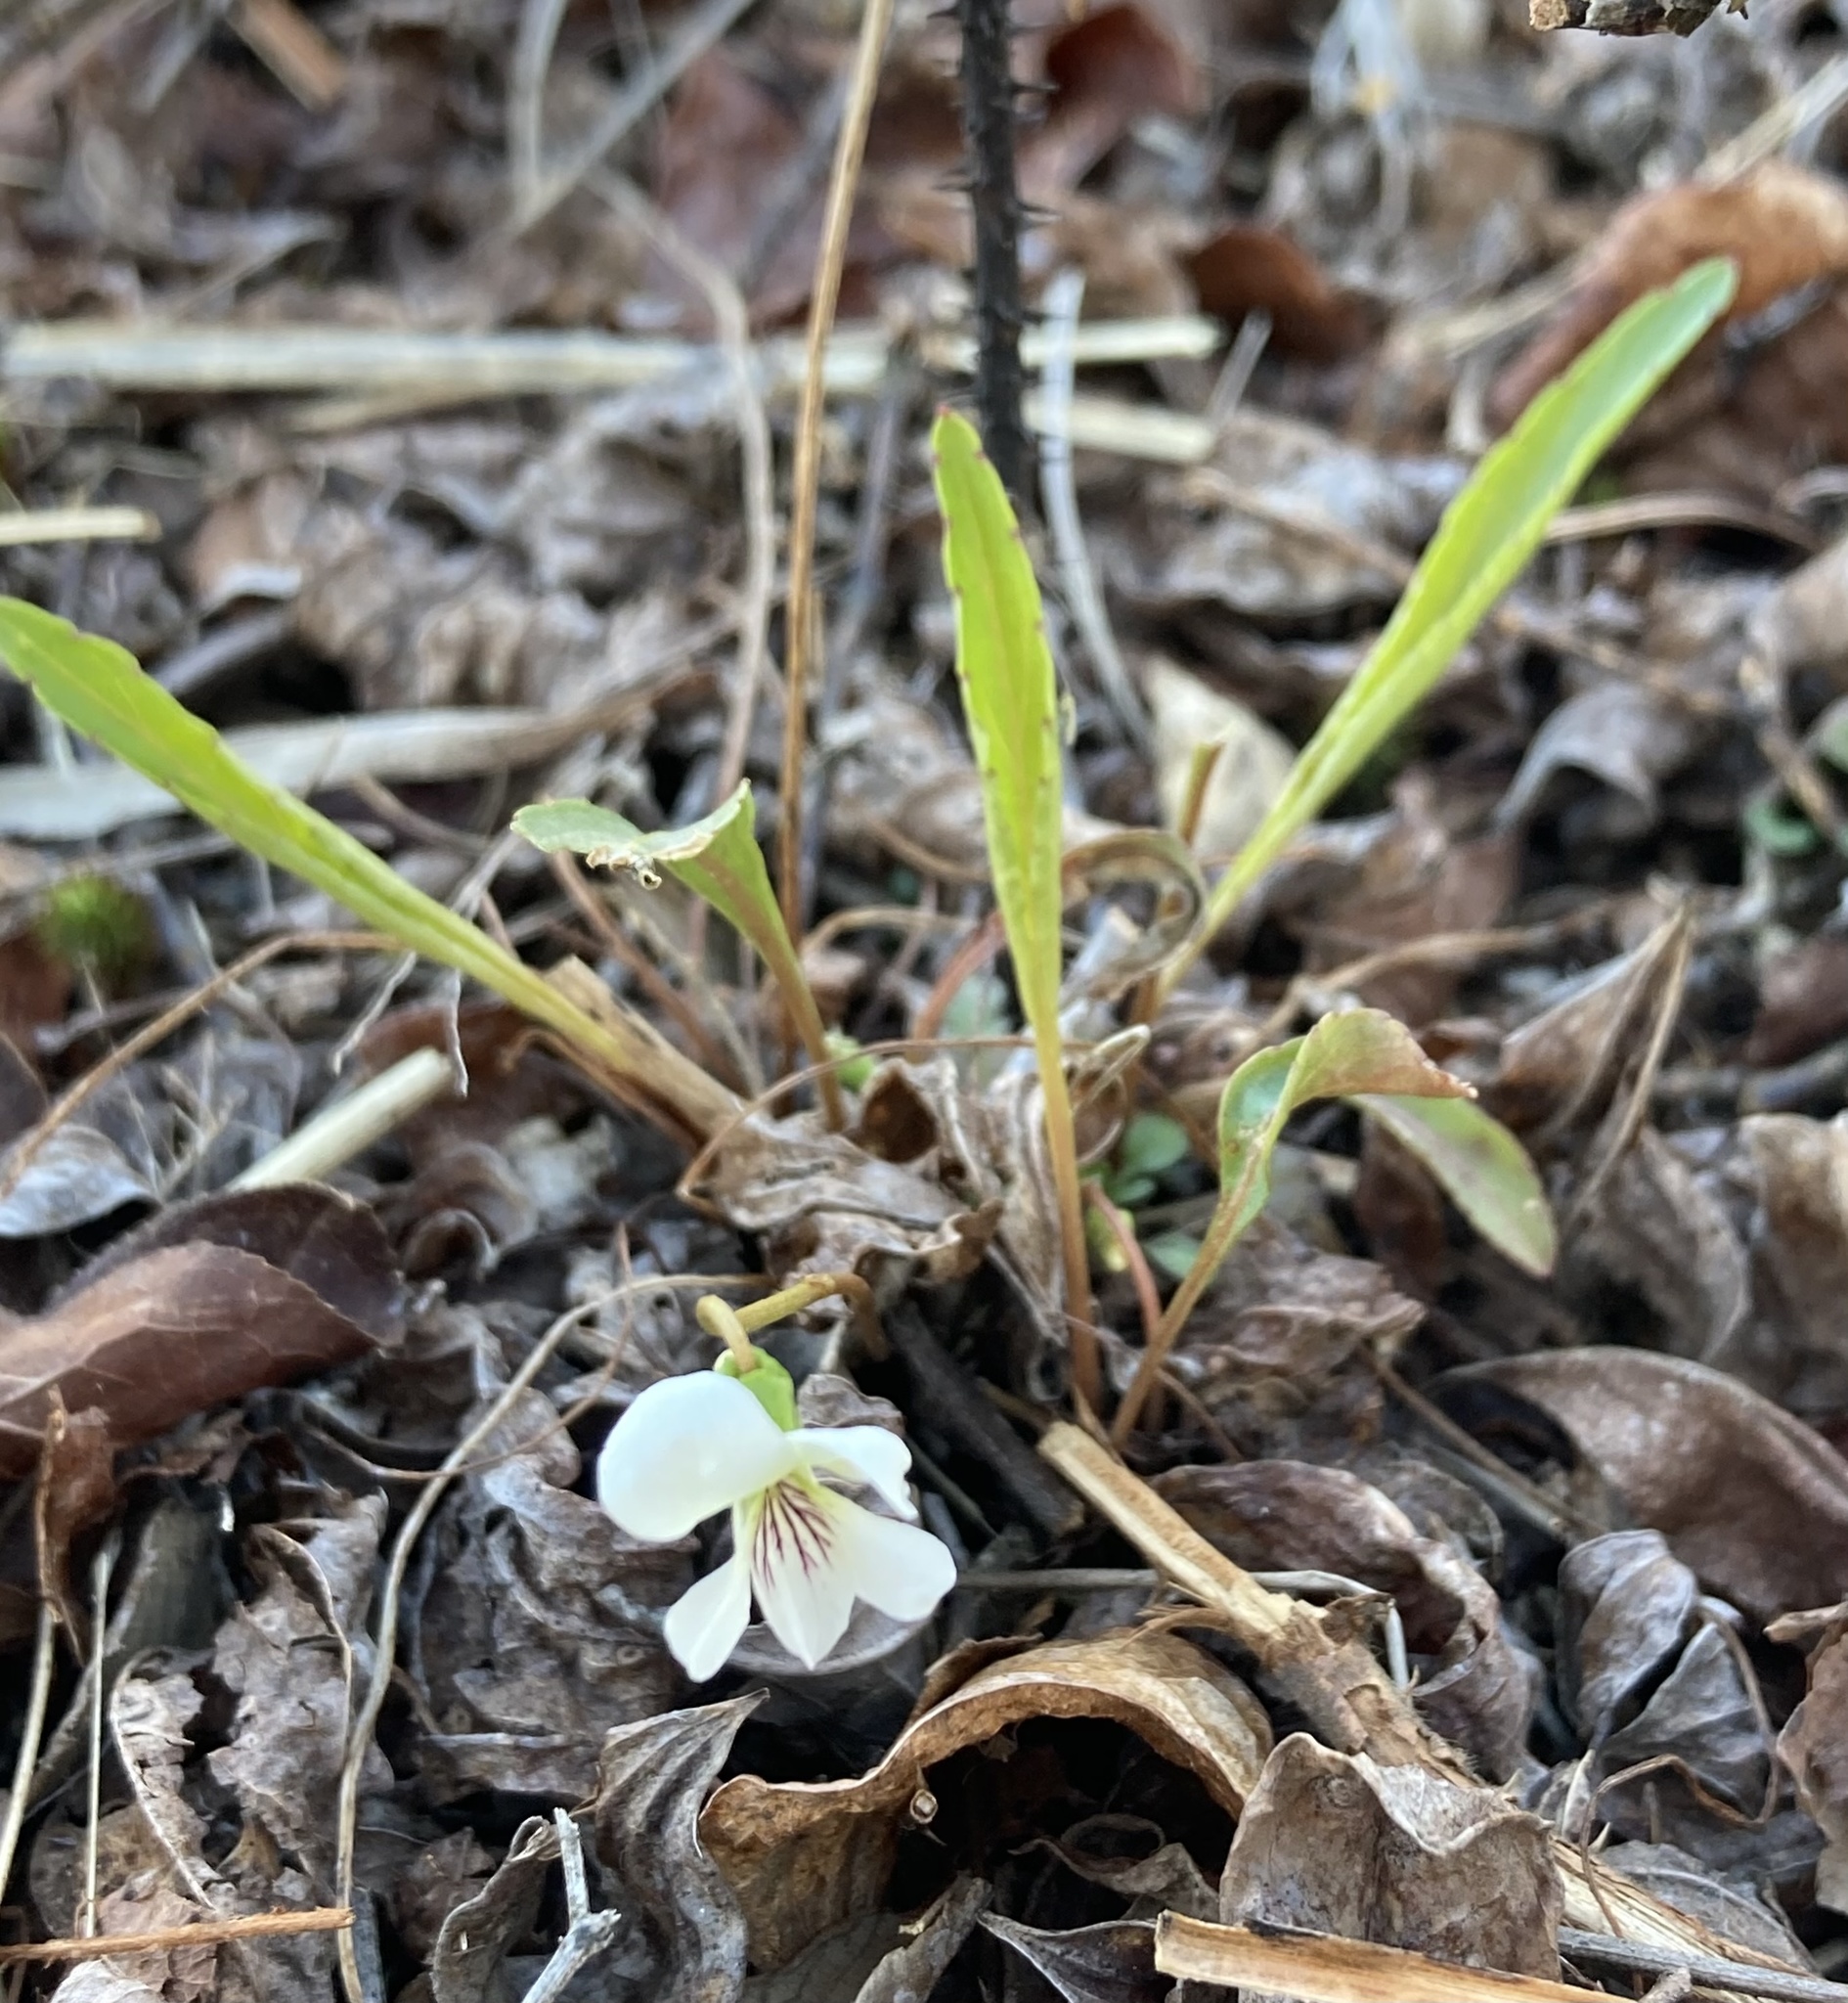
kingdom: Plantae
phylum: Tracheophyta
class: Magnoliopsida
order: Malpighiales
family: Violaceae
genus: Viola
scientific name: Viola lanceolata
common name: Bog white violet
